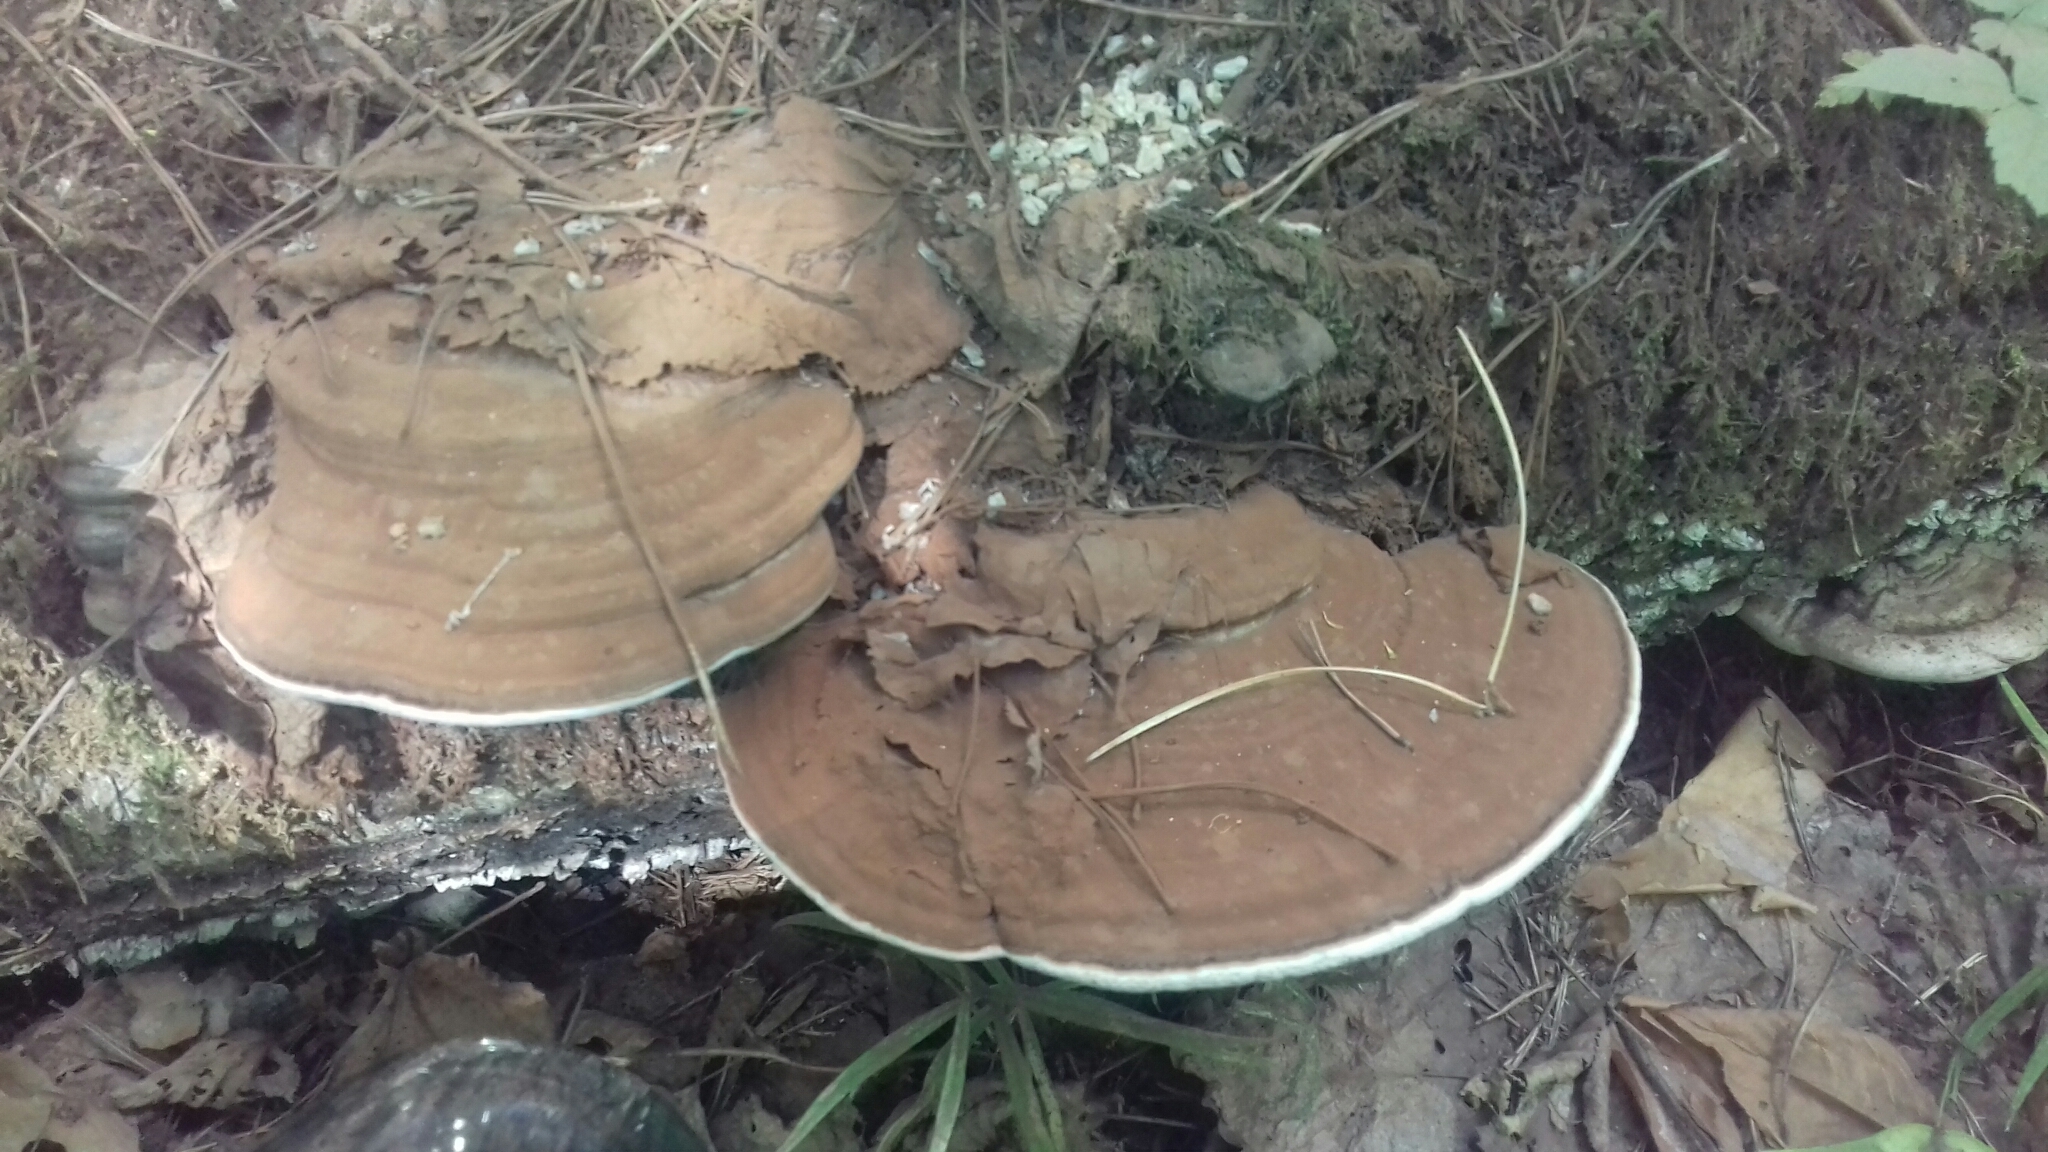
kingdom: Fungi
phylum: Basidiomycota
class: Agaricomycetes
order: Polyporales
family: Polyporaceae
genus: Ganoderma
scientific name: Ganoderma applanatum
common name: Artist's bracket
